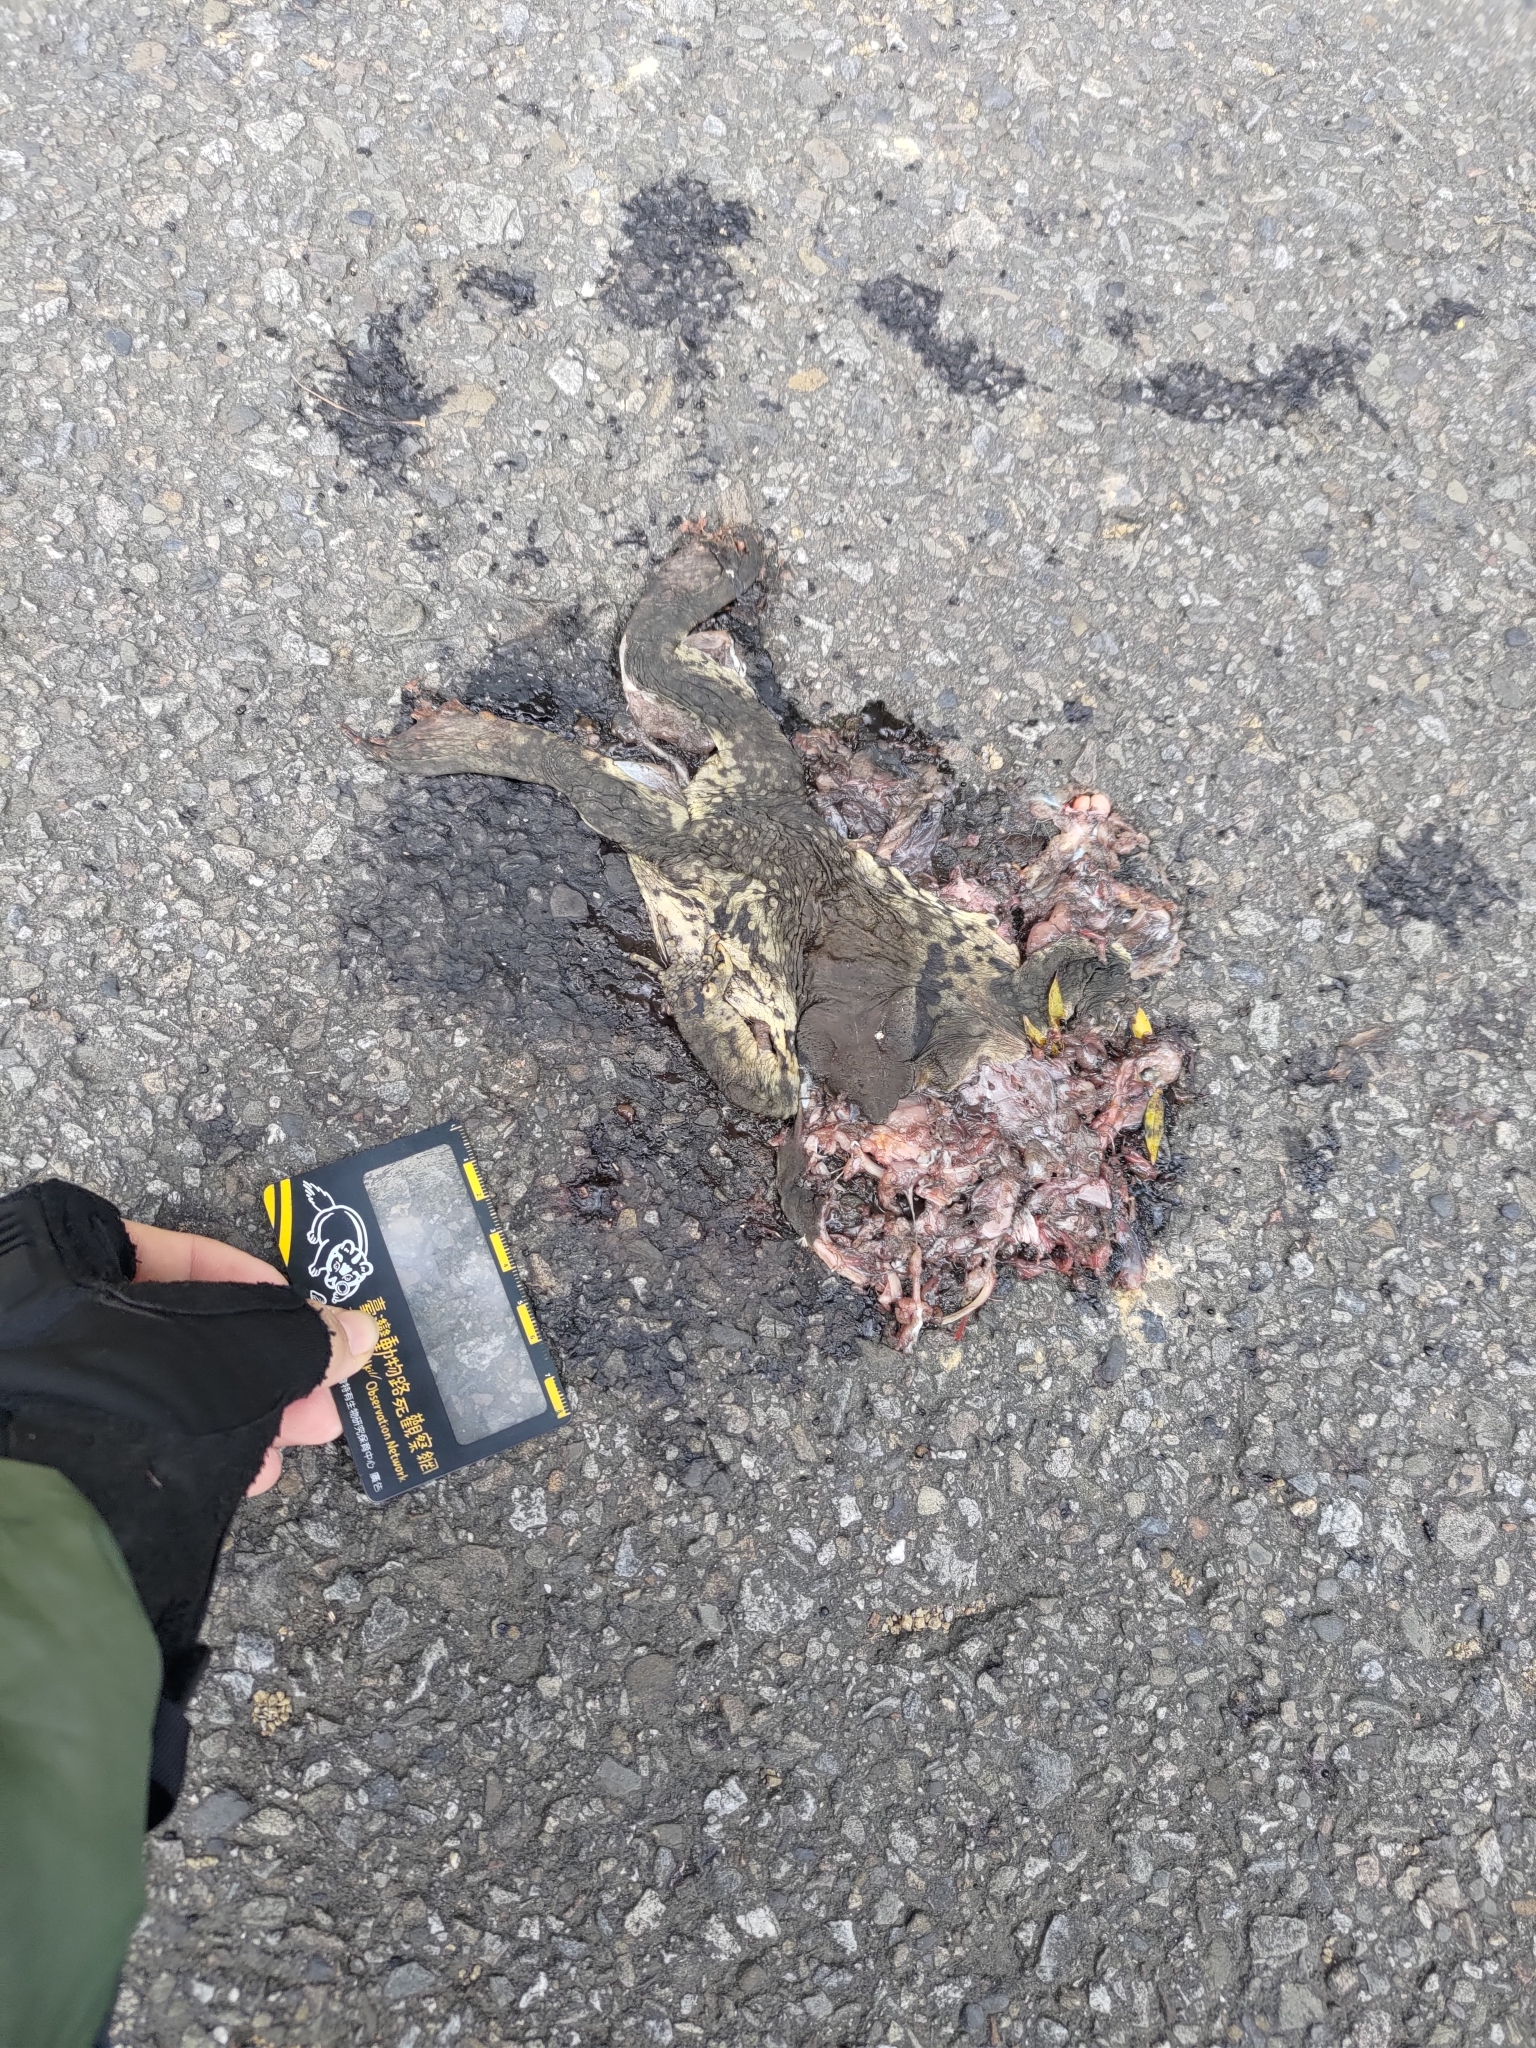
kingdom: Animalia
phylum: Chordata
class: Amphibia
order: Anura
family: Bufonidae
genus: Bufo
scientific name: Bufo bankorensis
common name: Bankor toad
